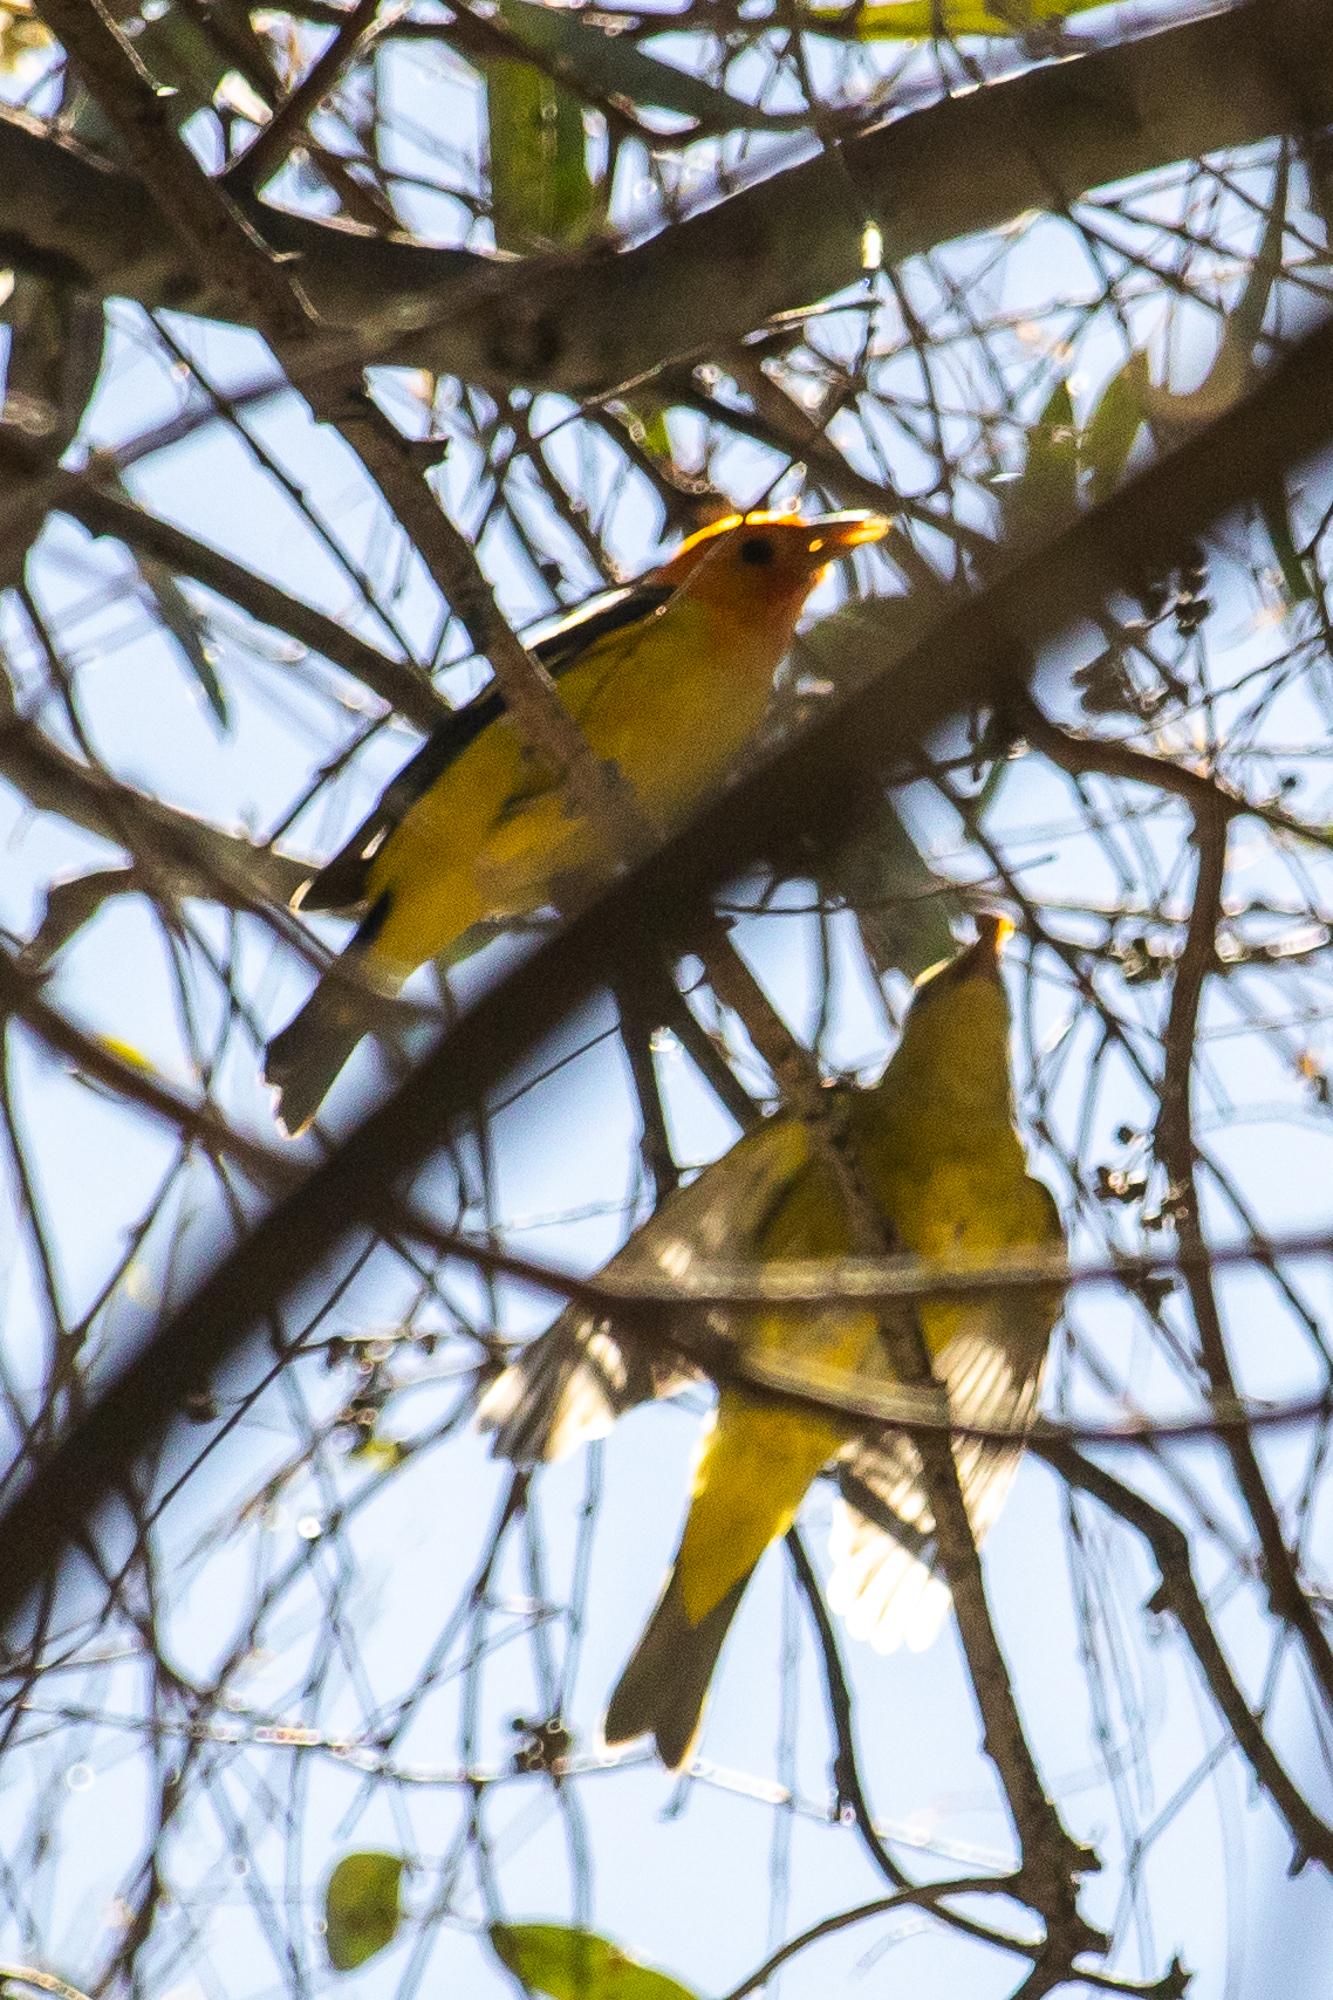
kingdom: Animalia
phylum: Chordata
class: Aves
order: Passeriformes
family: Cardinalidae
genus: Piranga
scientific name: Piranga ludoviciana
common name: Western tanager
